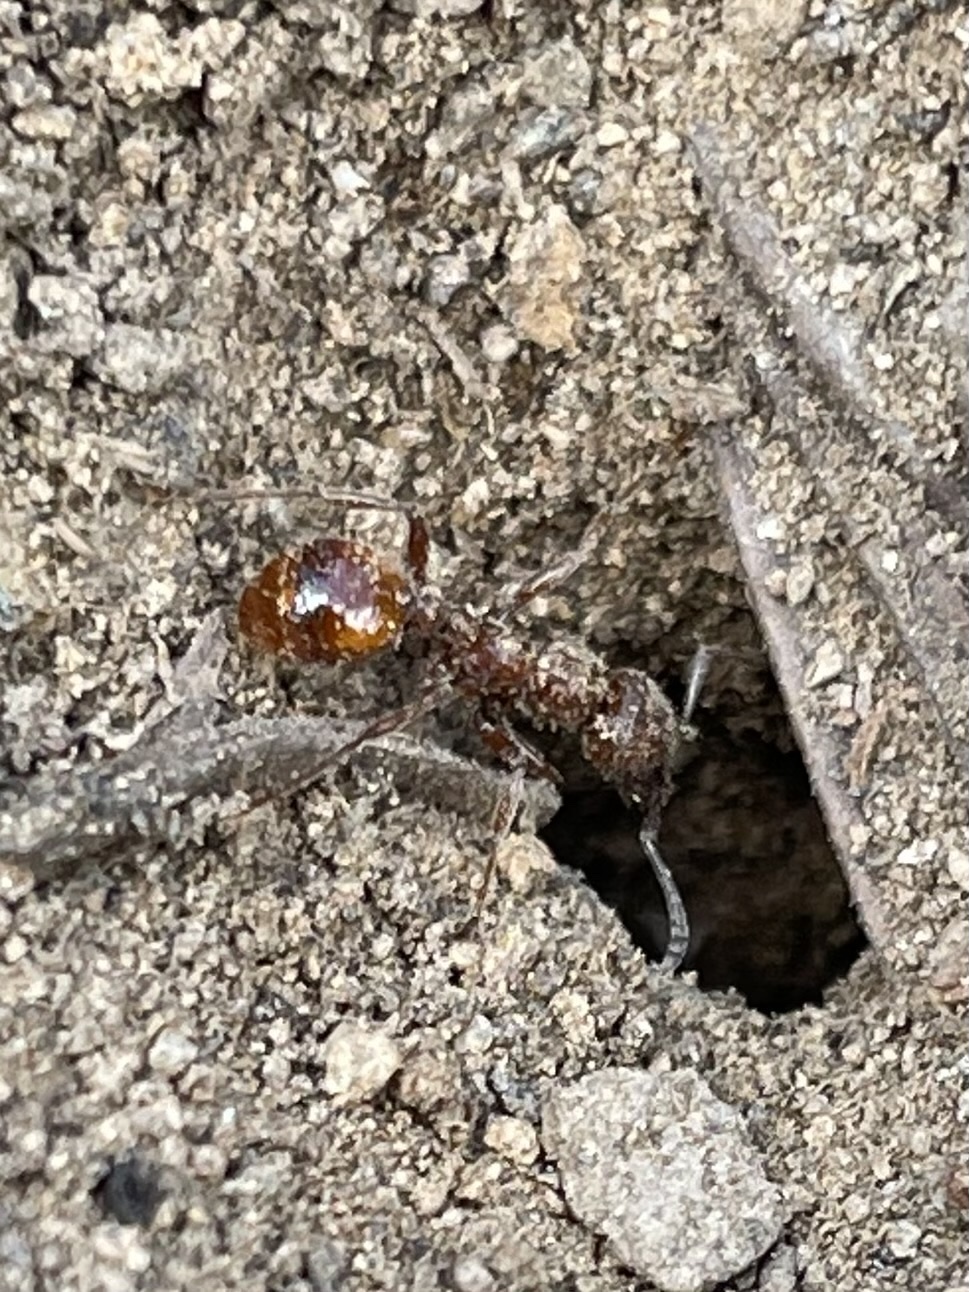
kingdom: Animalia
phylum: Arthropoda
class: Insecta
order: Hymenoptera
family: Formicidae
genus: Manica
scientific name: Manica
